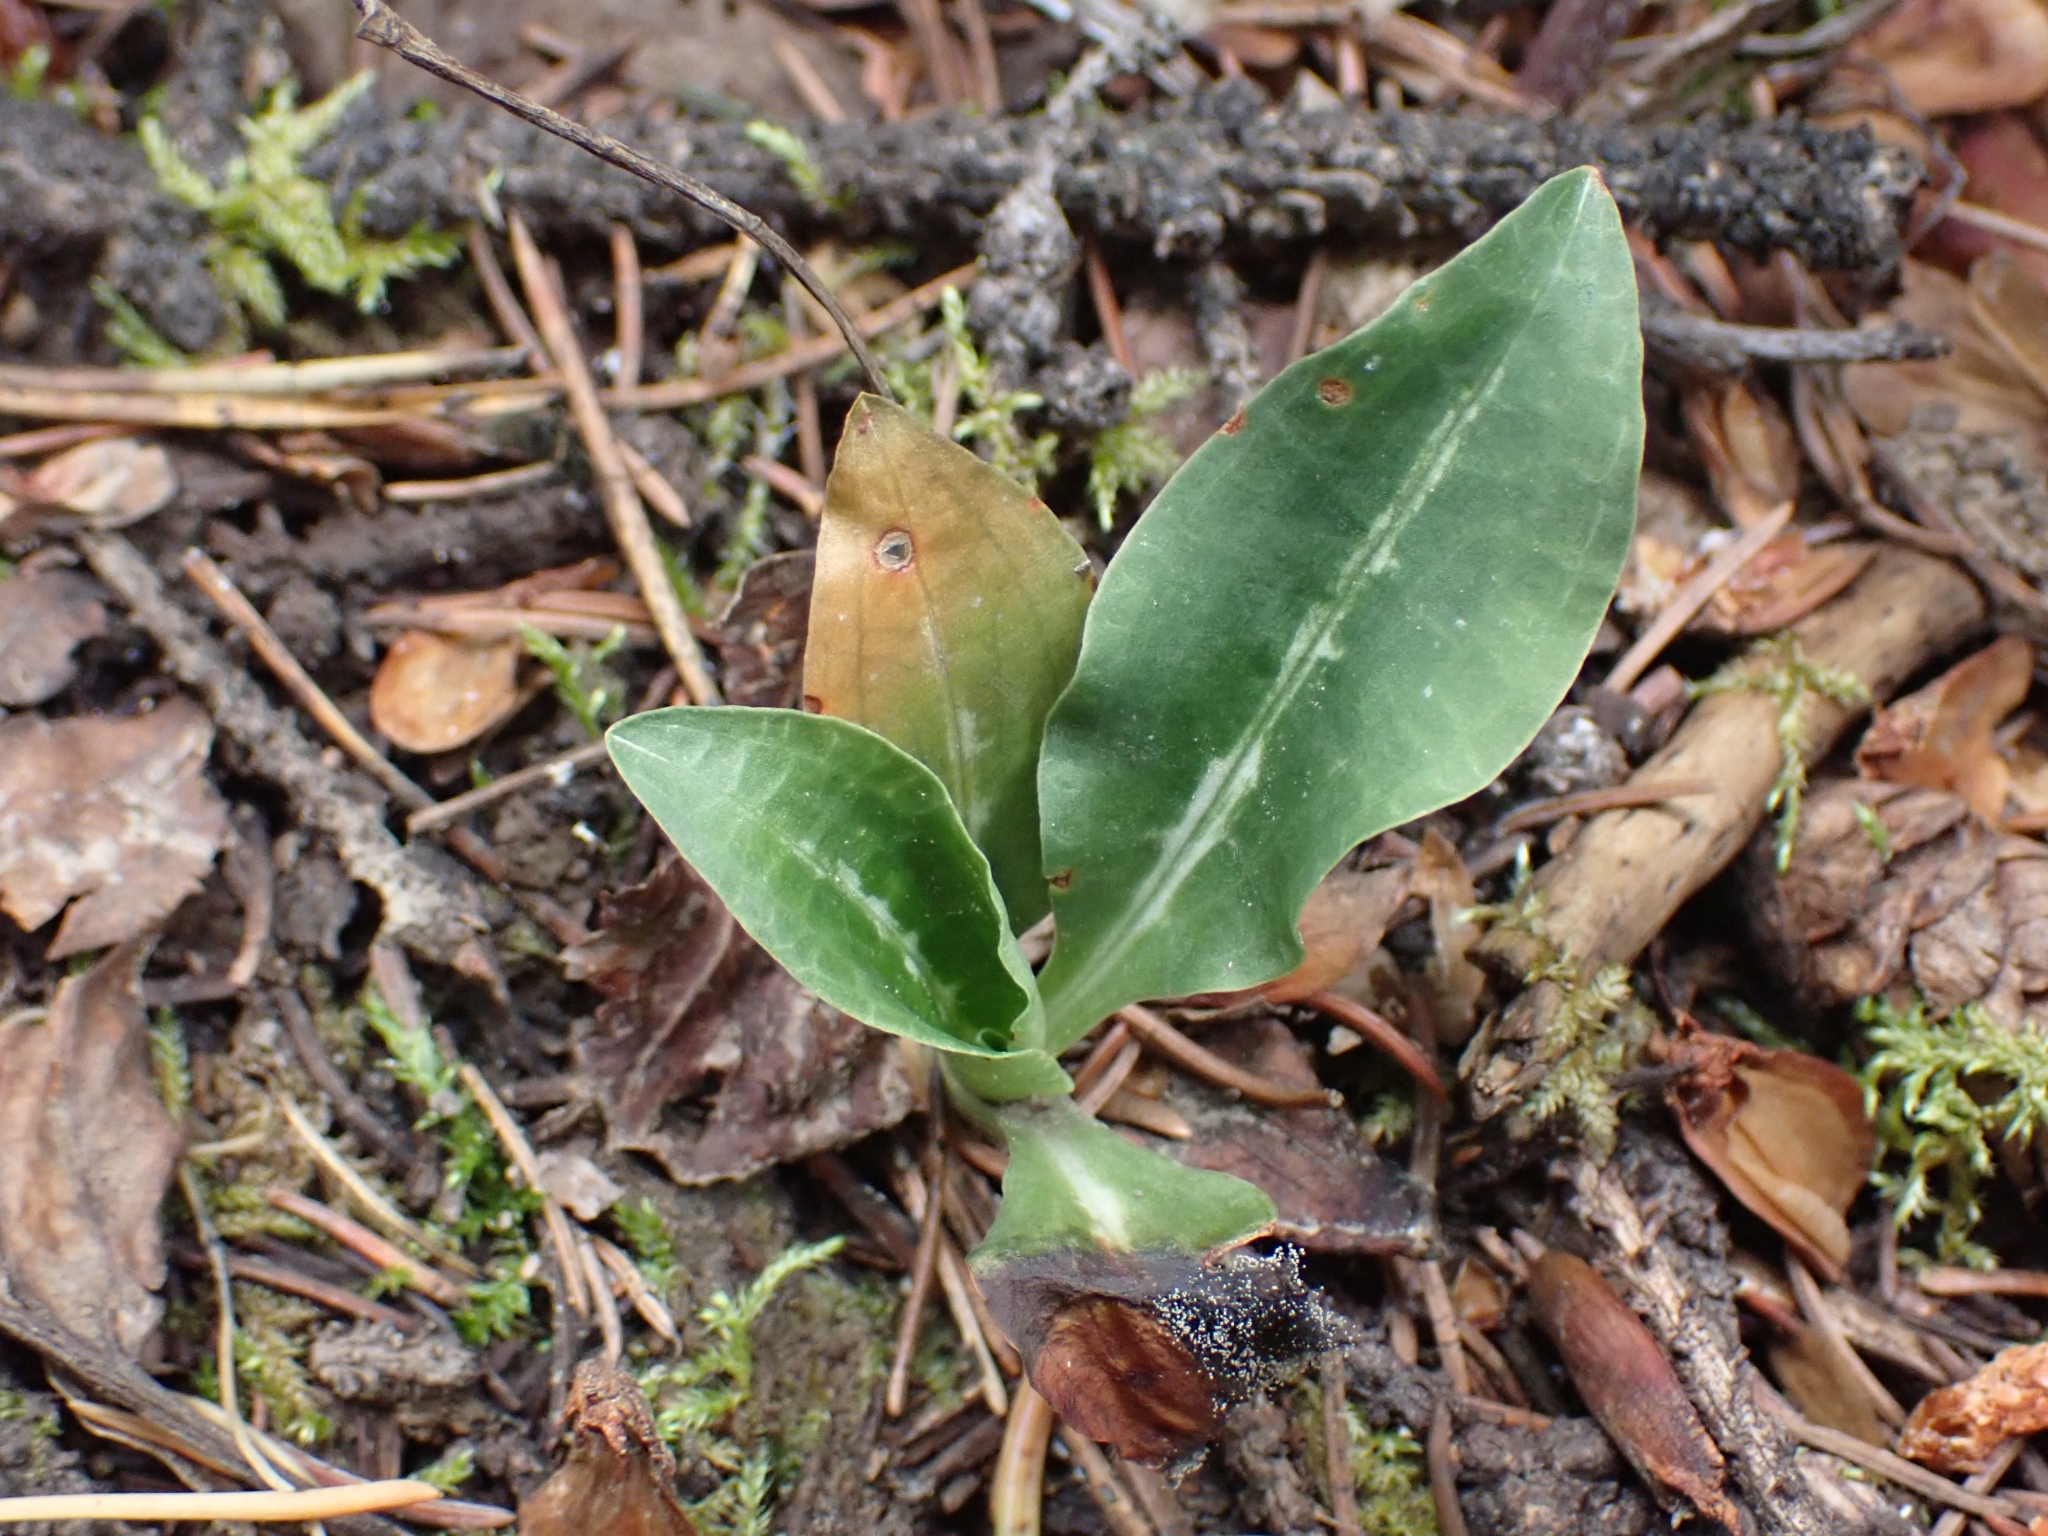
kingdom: Plantae
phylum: Tracheophyta
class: Liliopsida
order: Asparagales
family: Orchidaceae
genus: Goodyera
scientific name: Goodyera oblongifolia
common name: Giant rattlesnake-plantain
